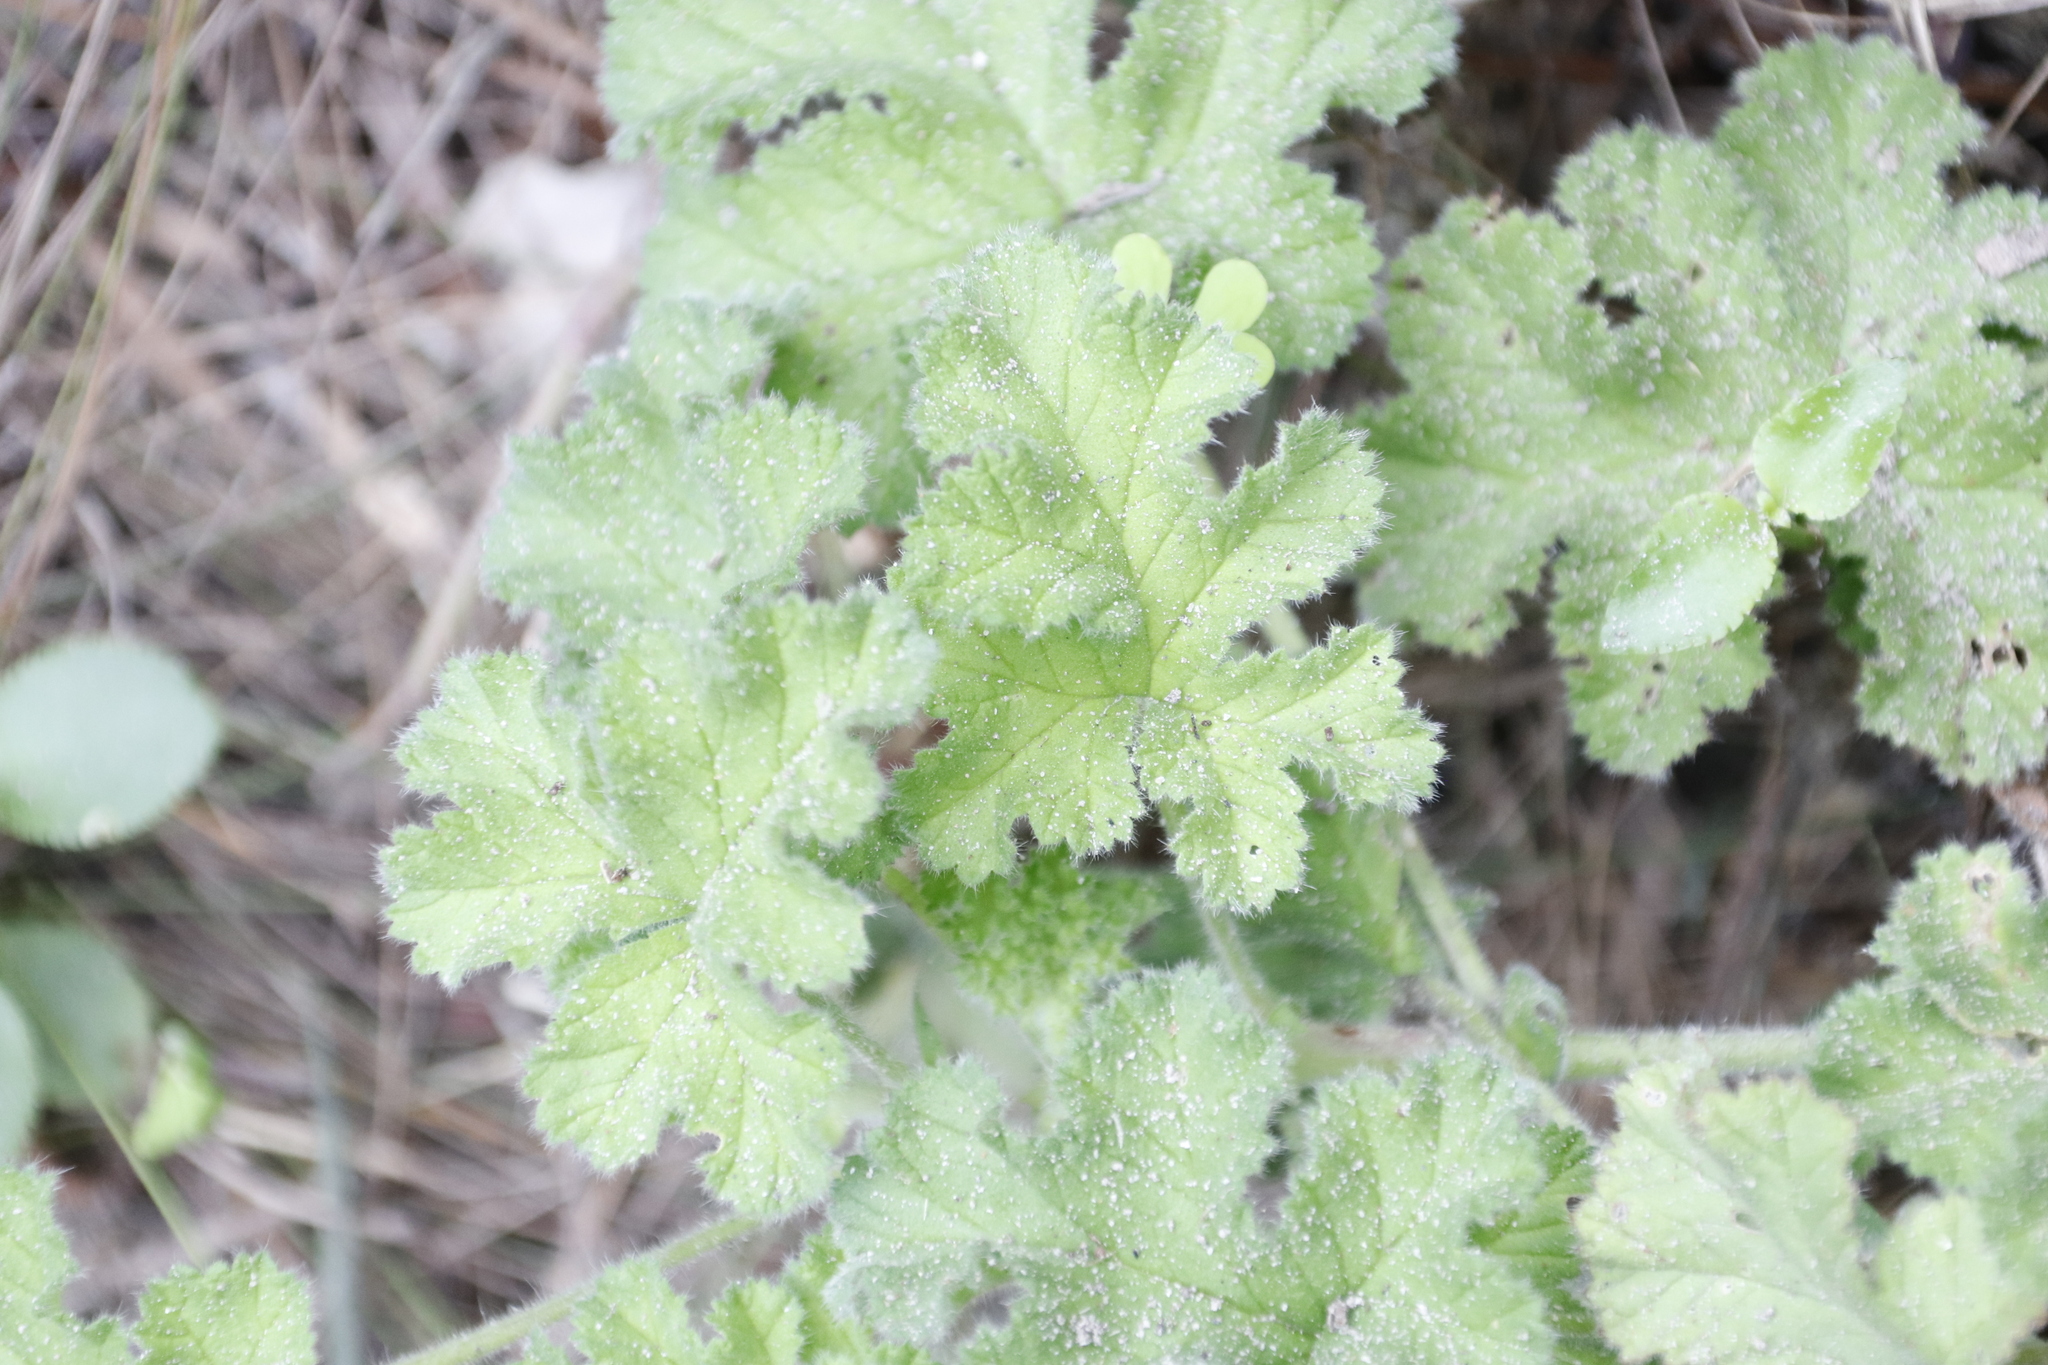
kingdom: Plantae
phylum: Tracheophyta
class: Magnoliopsida
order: Geraniales
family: Geraniaceae
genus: Pelargonium
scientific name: Pelargonium capitatum
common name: Rose scented geranium
